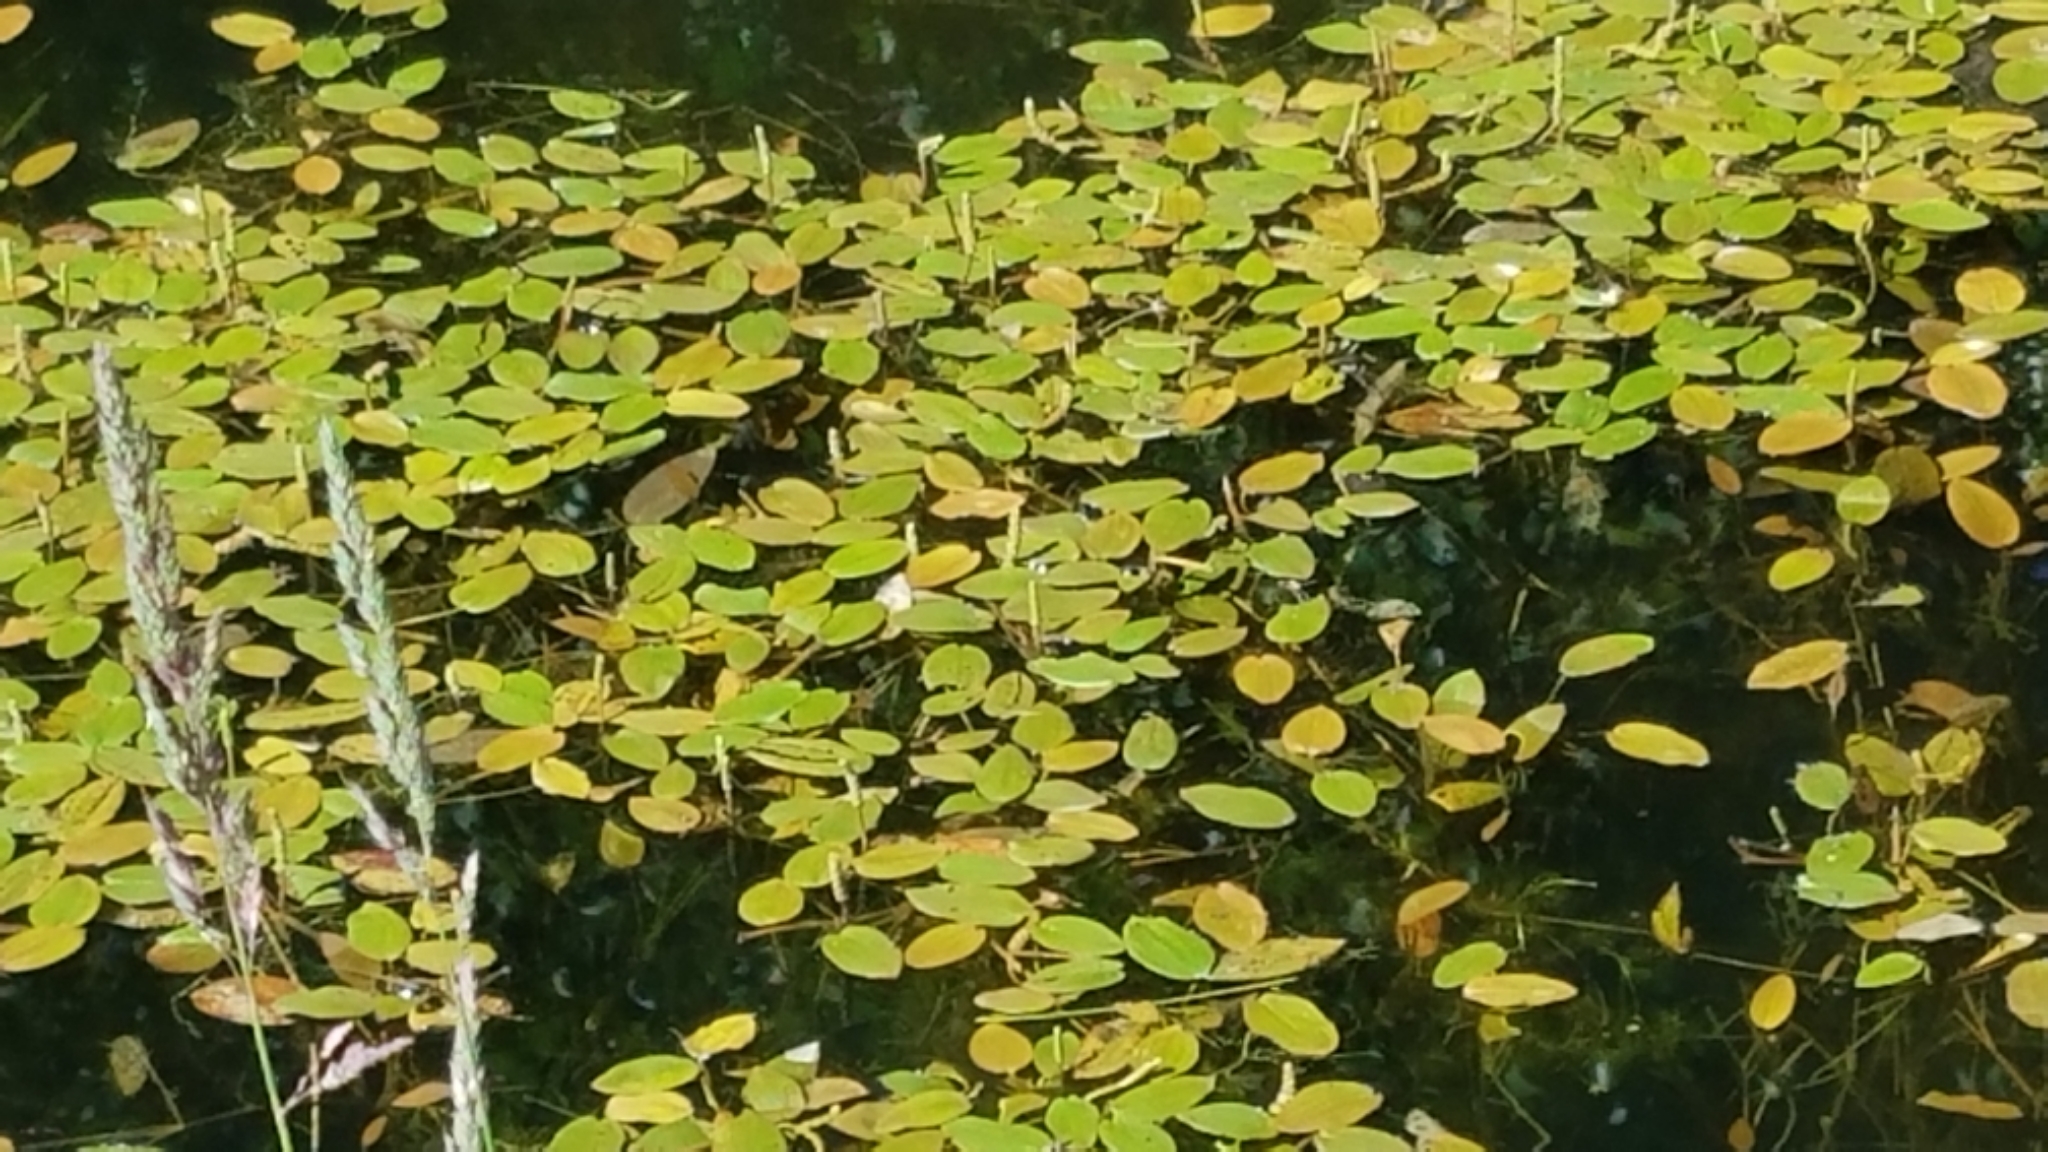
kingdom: Plantae
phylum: Tracheophyta
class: Liliopsida
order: Alismatales
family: Potamogetonaceae
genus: Potamogeton
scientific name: Potamogeton natans
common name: Broad-leaved pondweed
